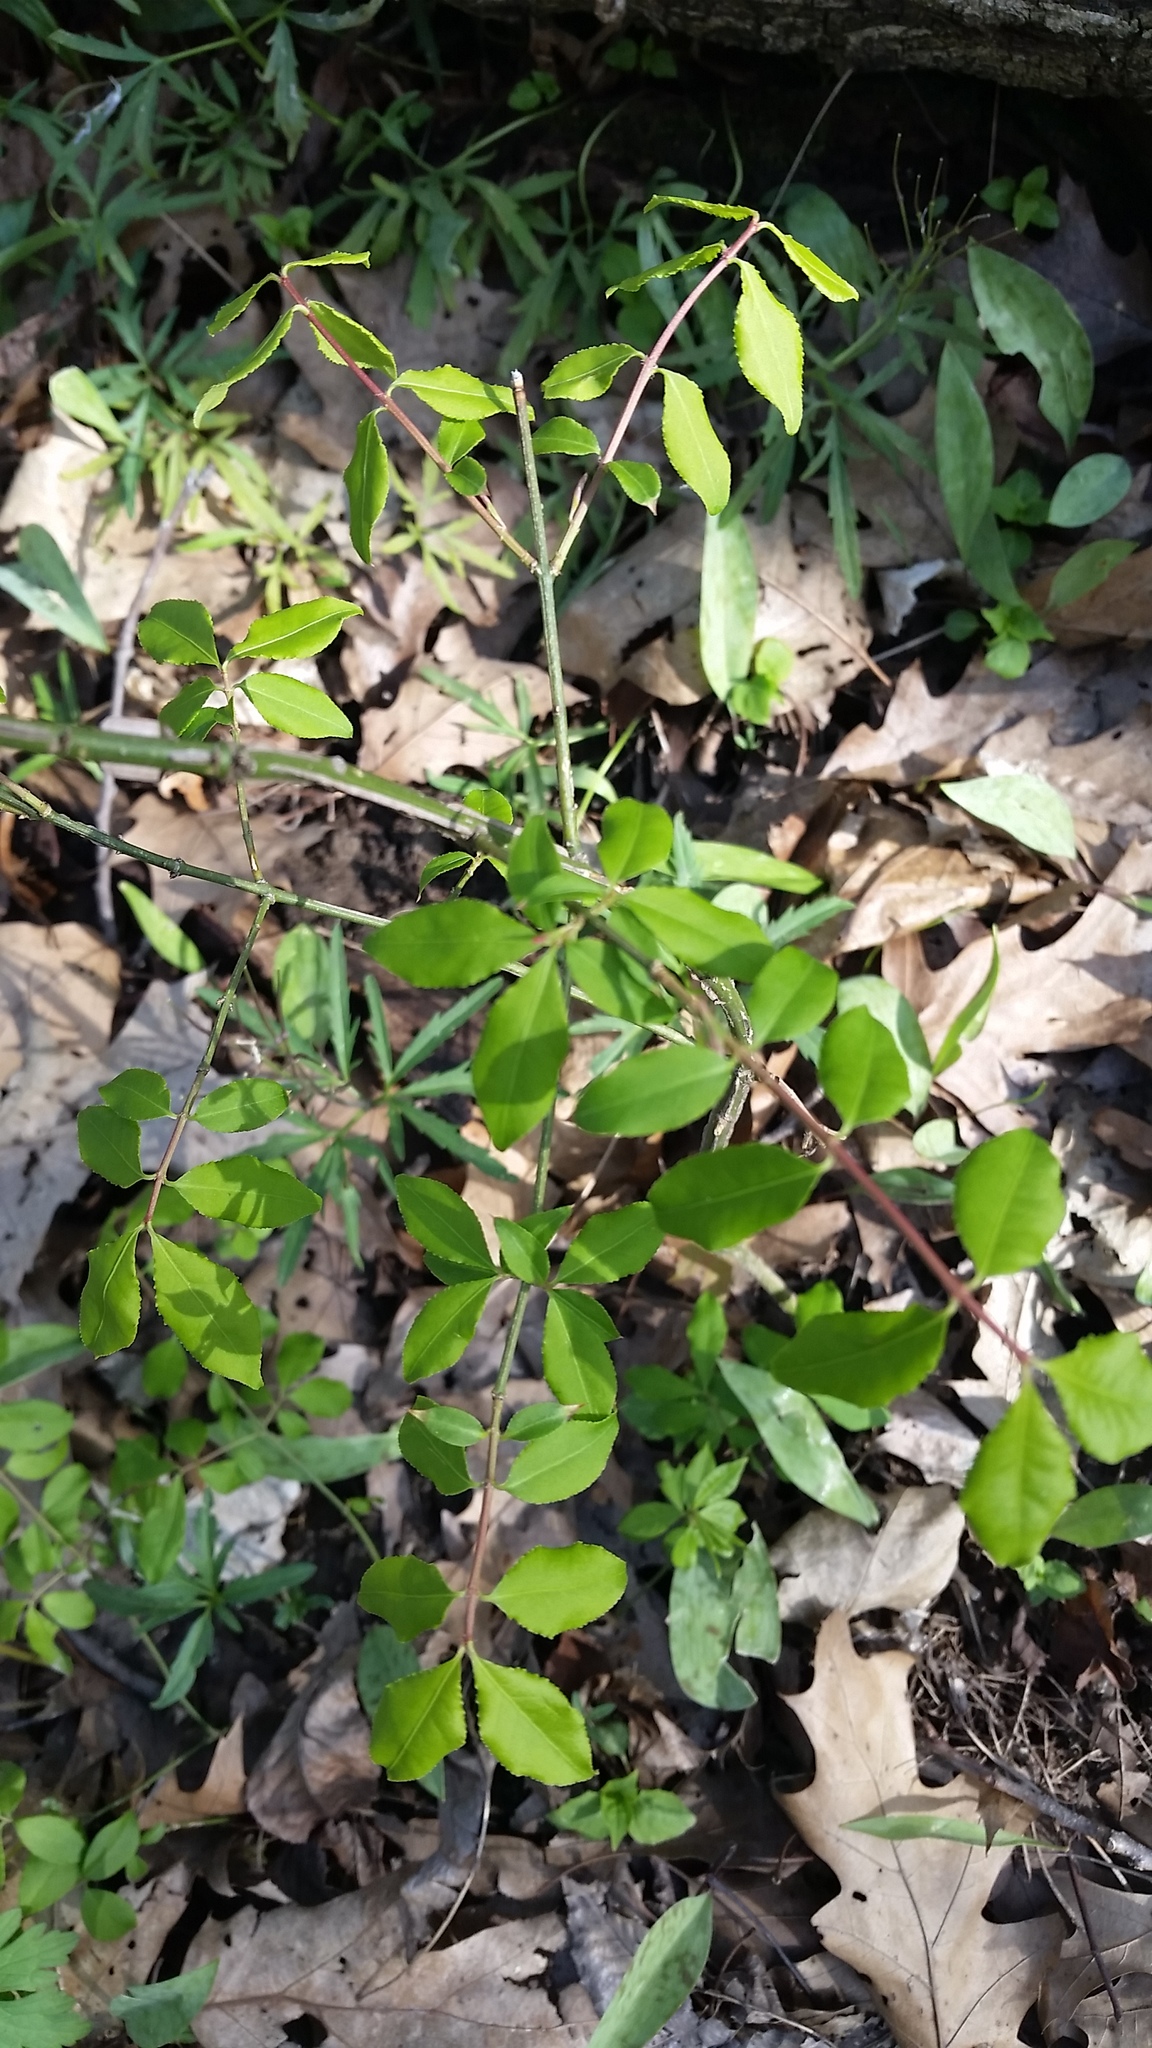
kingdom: Plantae
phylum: Tracheophyta
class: Magnoliopsida
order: Celastrales
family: Celastraceae
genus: Euonymus
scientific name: Euonymus alatus
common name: Winged euonymus
